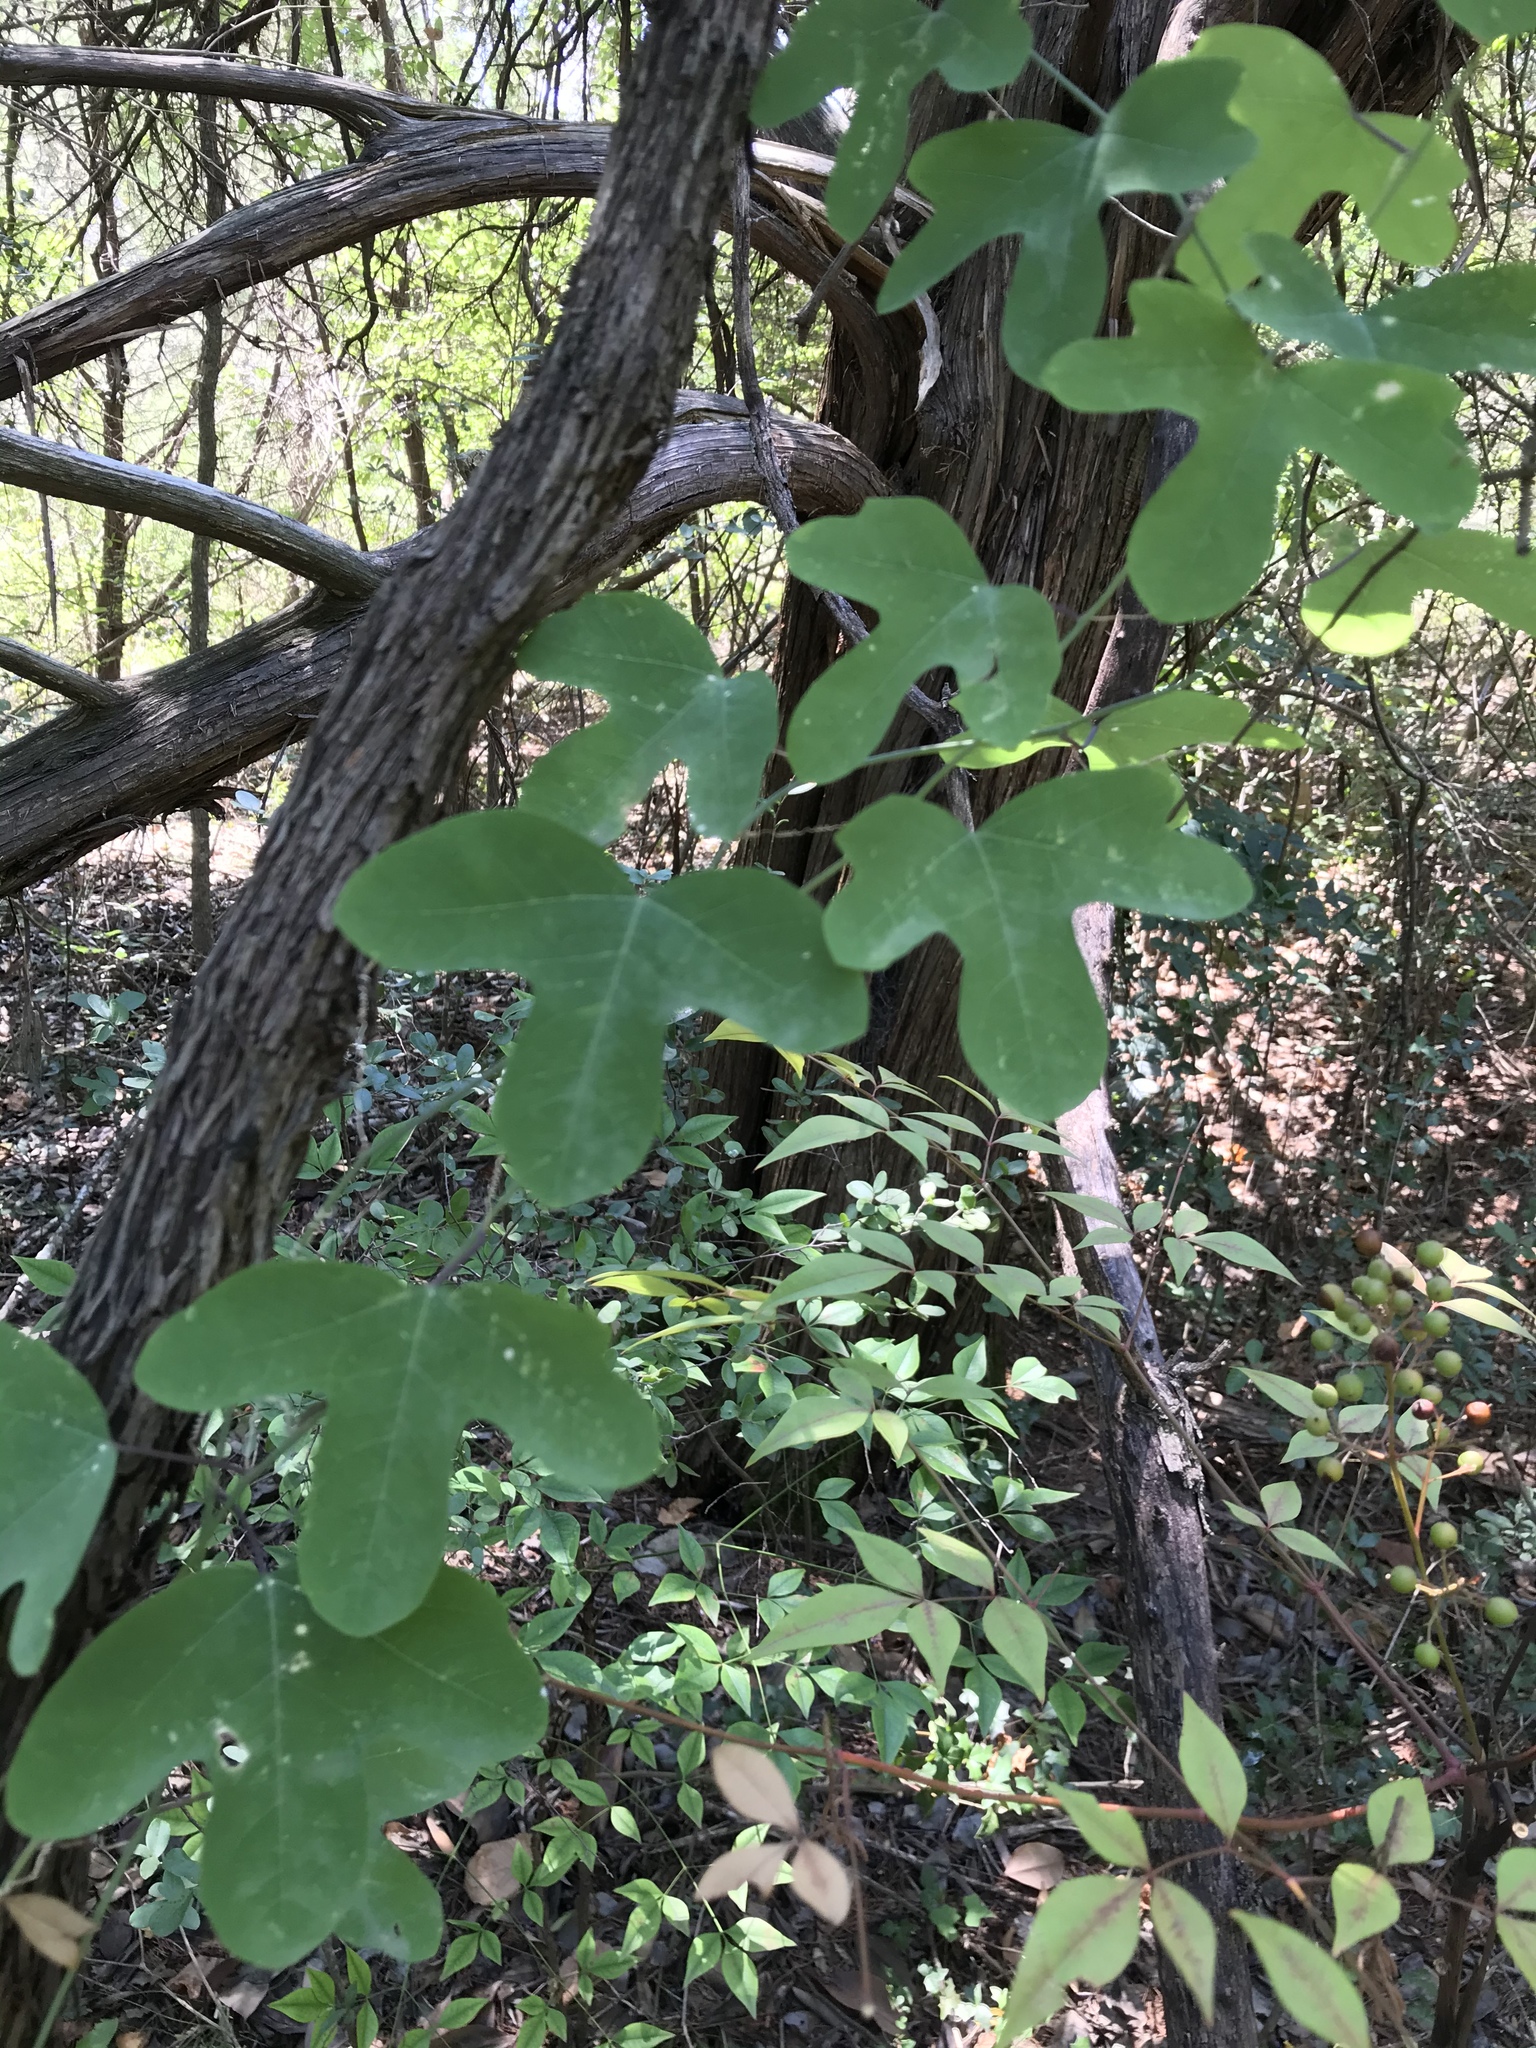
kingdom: Plantae
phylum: Tracheophyta
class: Magnoliopsida
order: Malpighiales
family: Passifloraceae
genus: Passiflora
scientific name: Passiflora affinis
